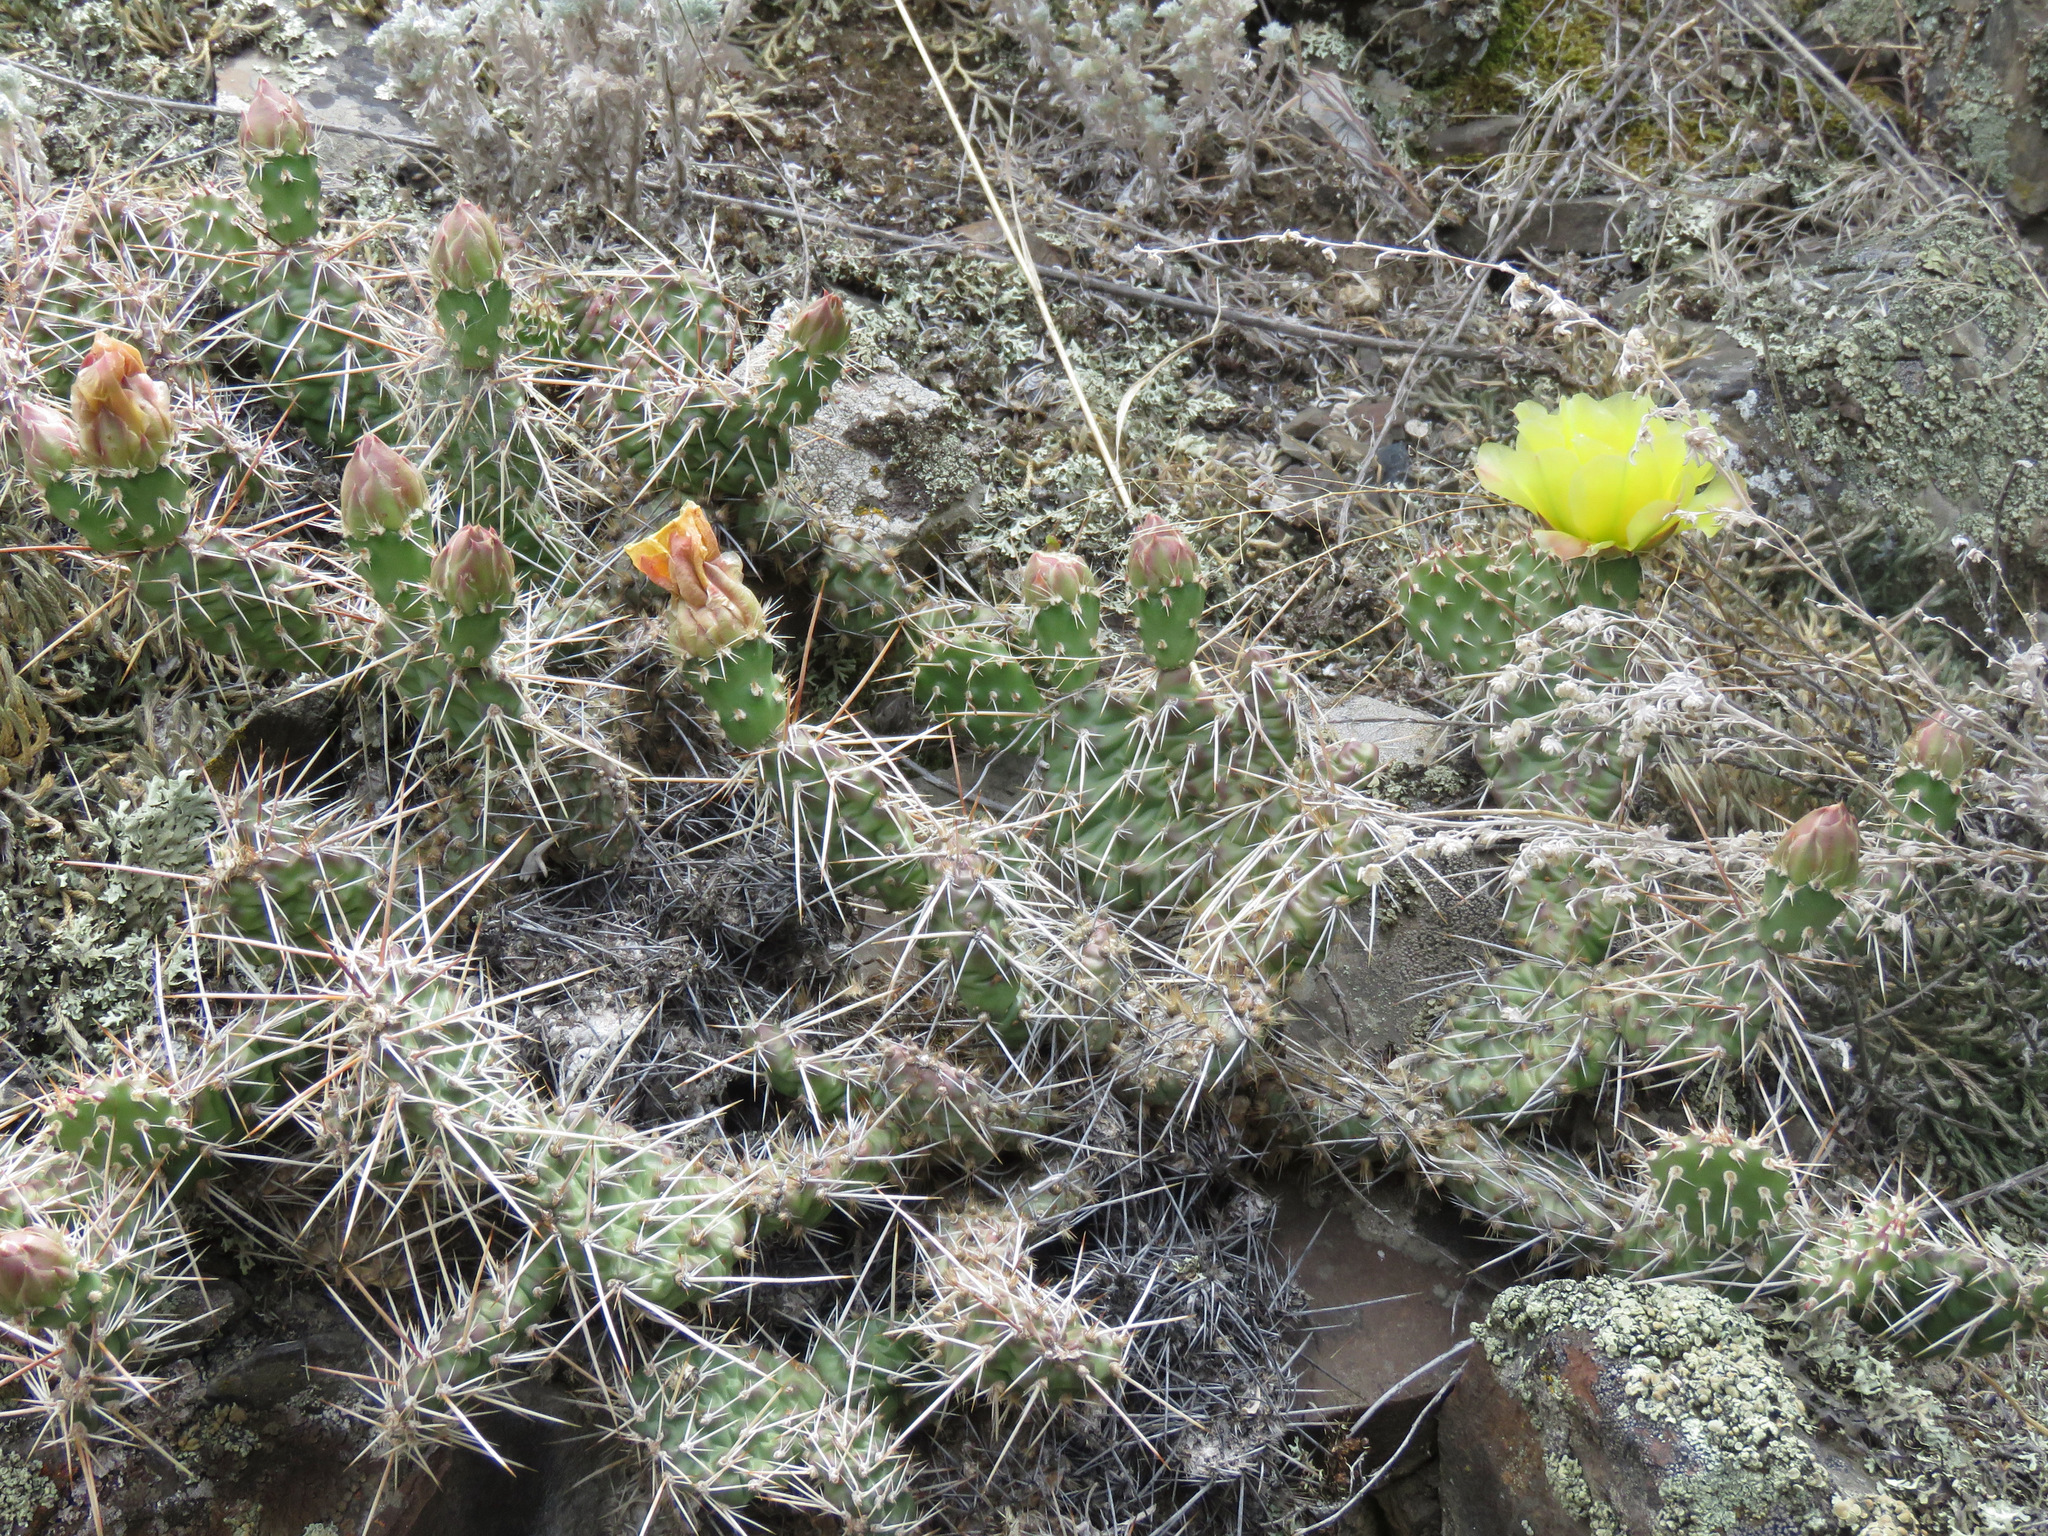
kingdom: Plantae
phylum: Tracheophyta
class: Magnoliopsida
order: Caryophyllales
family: Cactaceae
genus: Opuntia
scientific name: Opuntia fragilis
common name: Brittle cactus
